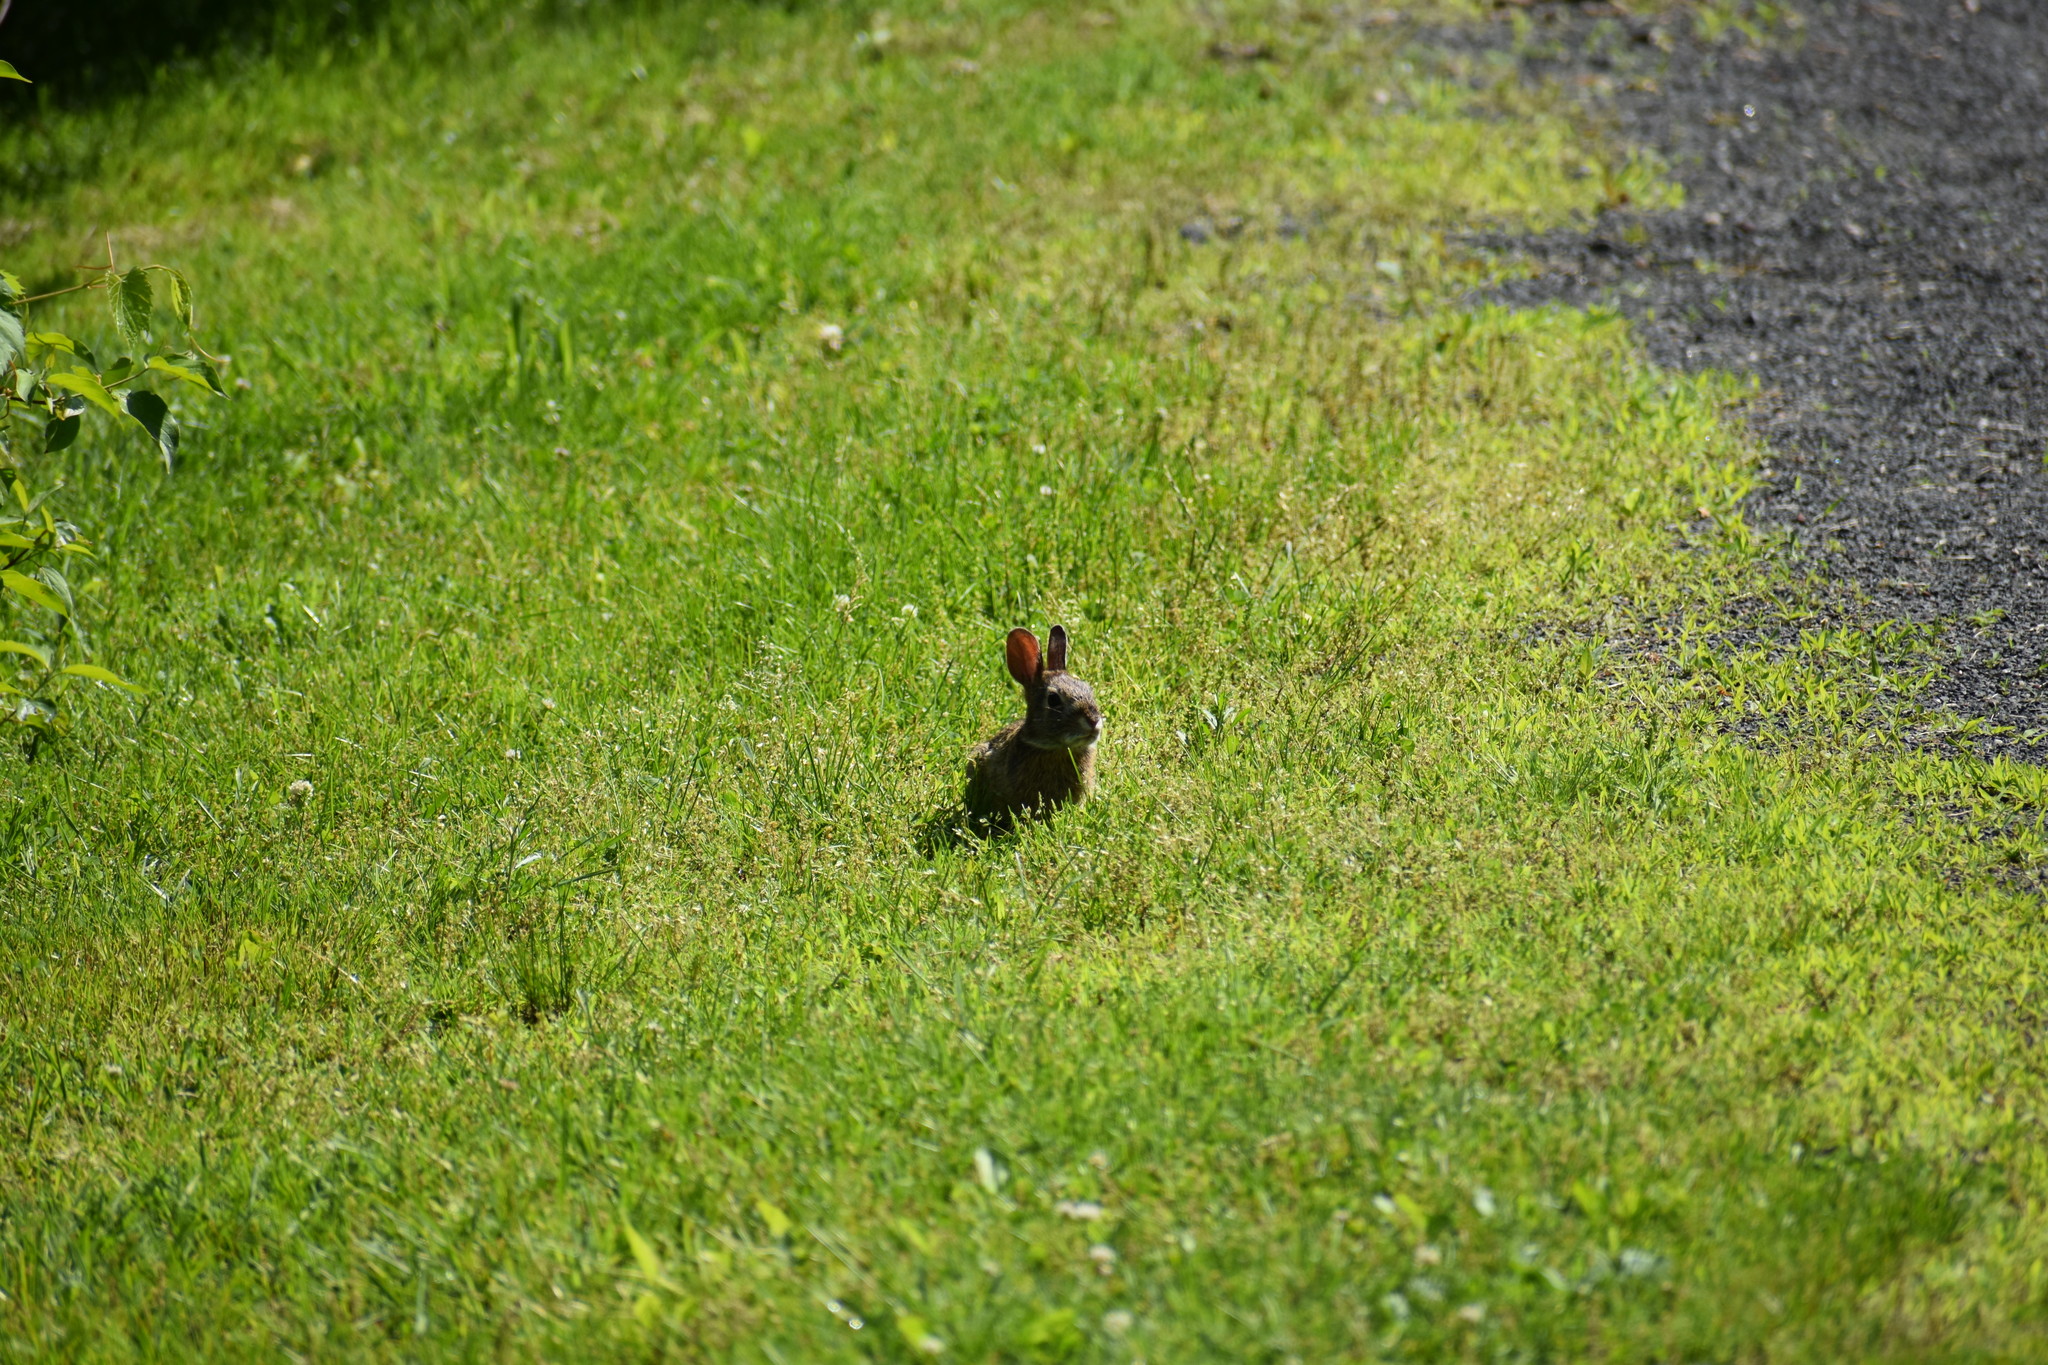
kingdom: Animalia
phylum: Chordata
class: Mammalia
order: Lagomorpha
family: Leporidae
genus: Sylvilagus
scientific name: Sylvilagus floridanus
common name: Eastern cottontail
